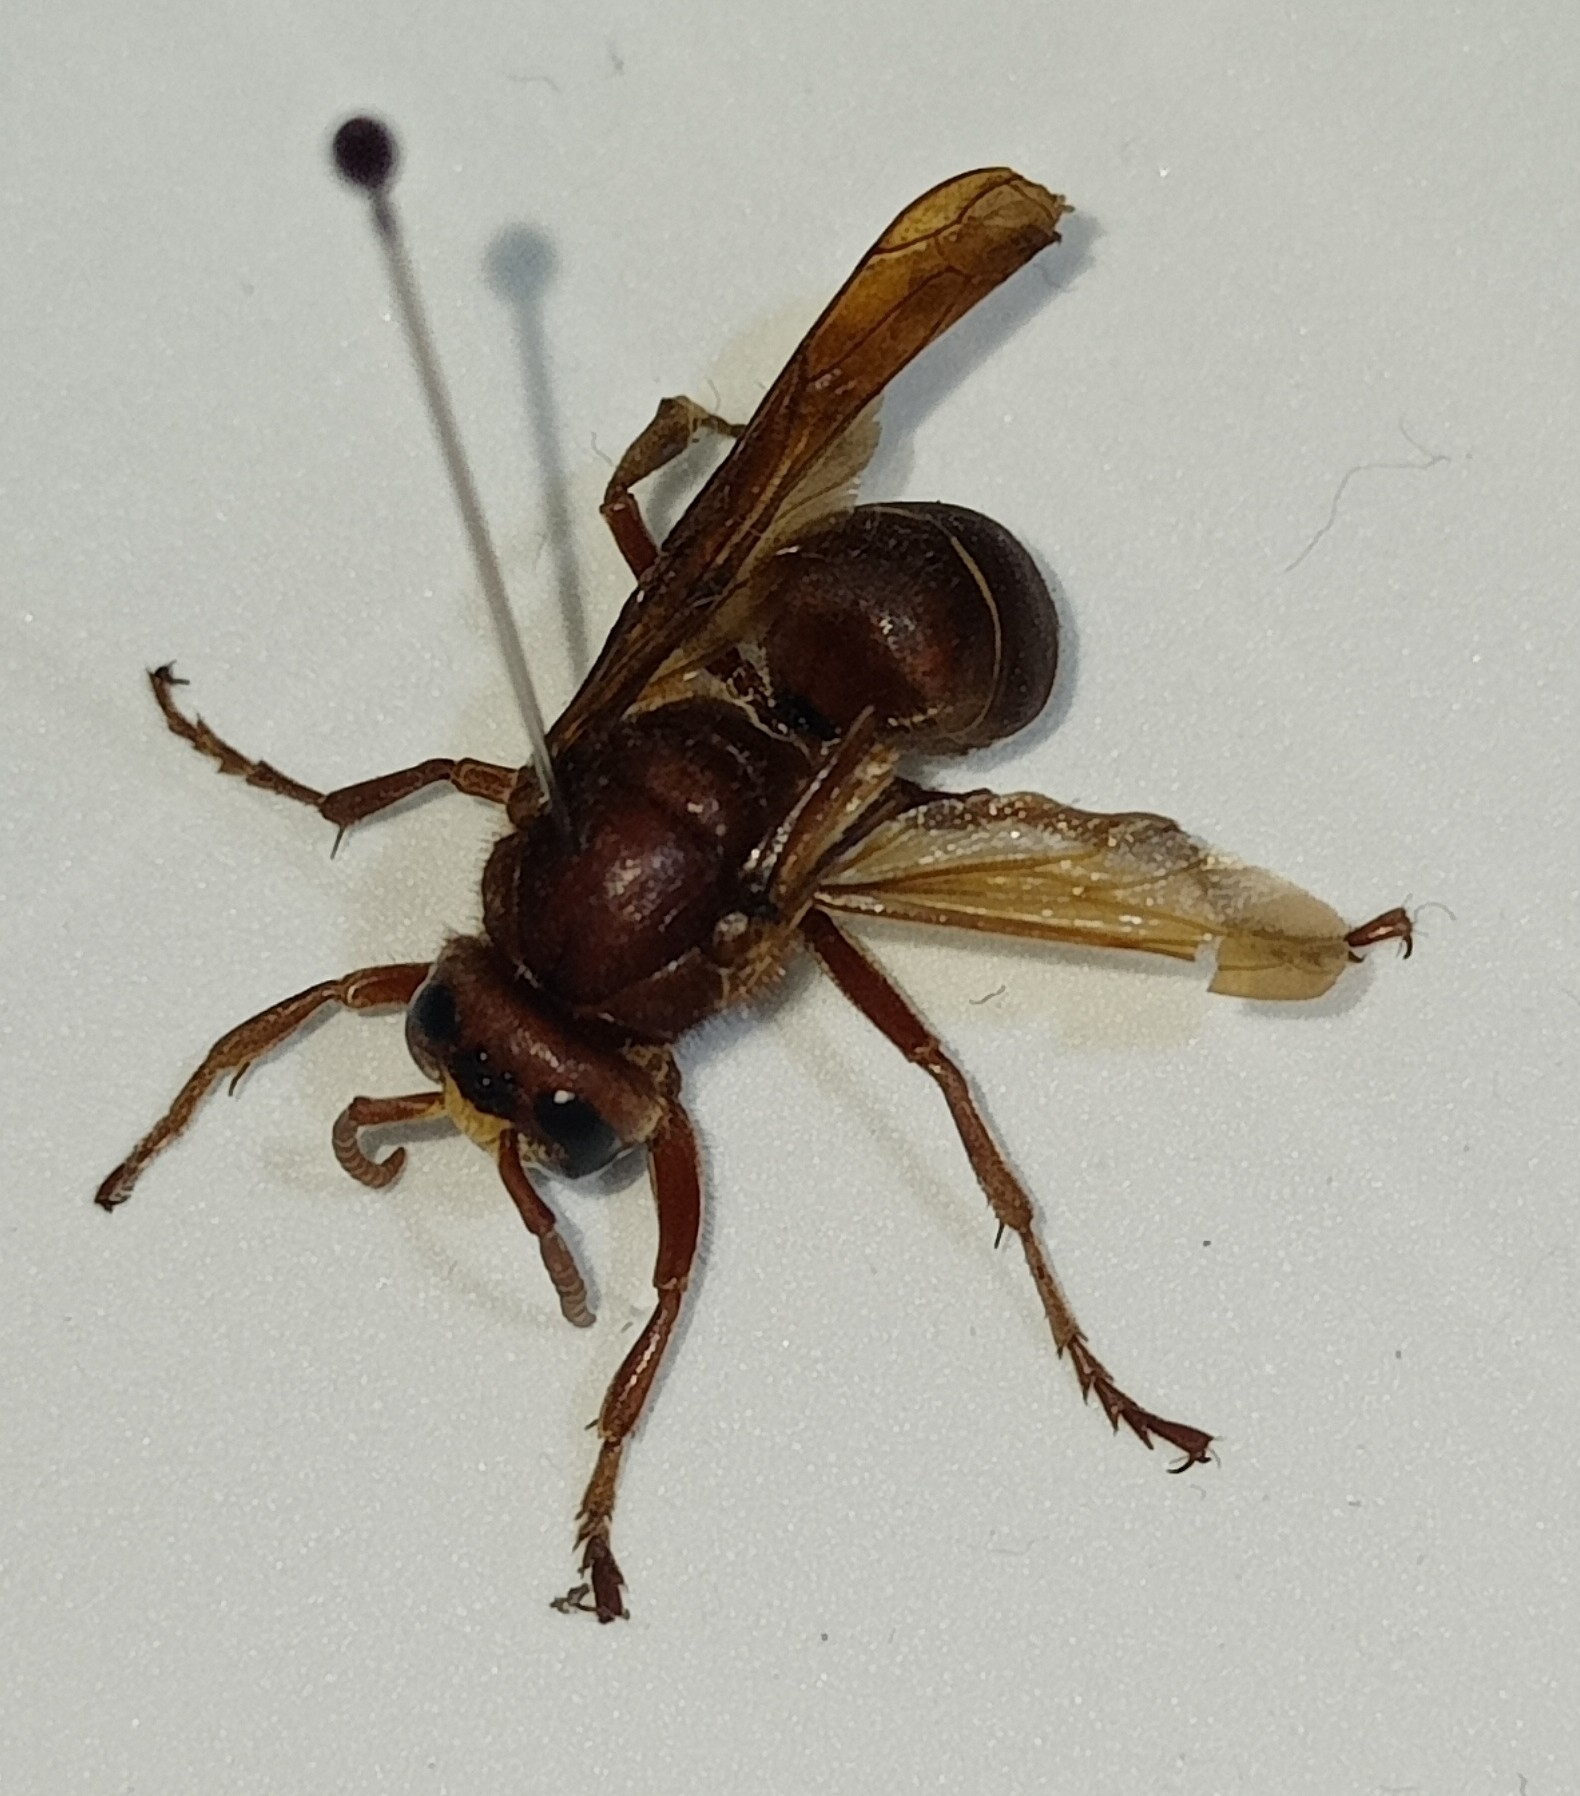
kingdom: Animalia
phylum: Arthropoda
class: Insecta
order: Hymenoptera
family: Vespidae
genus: Vespa
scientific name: Vespa orientalis
